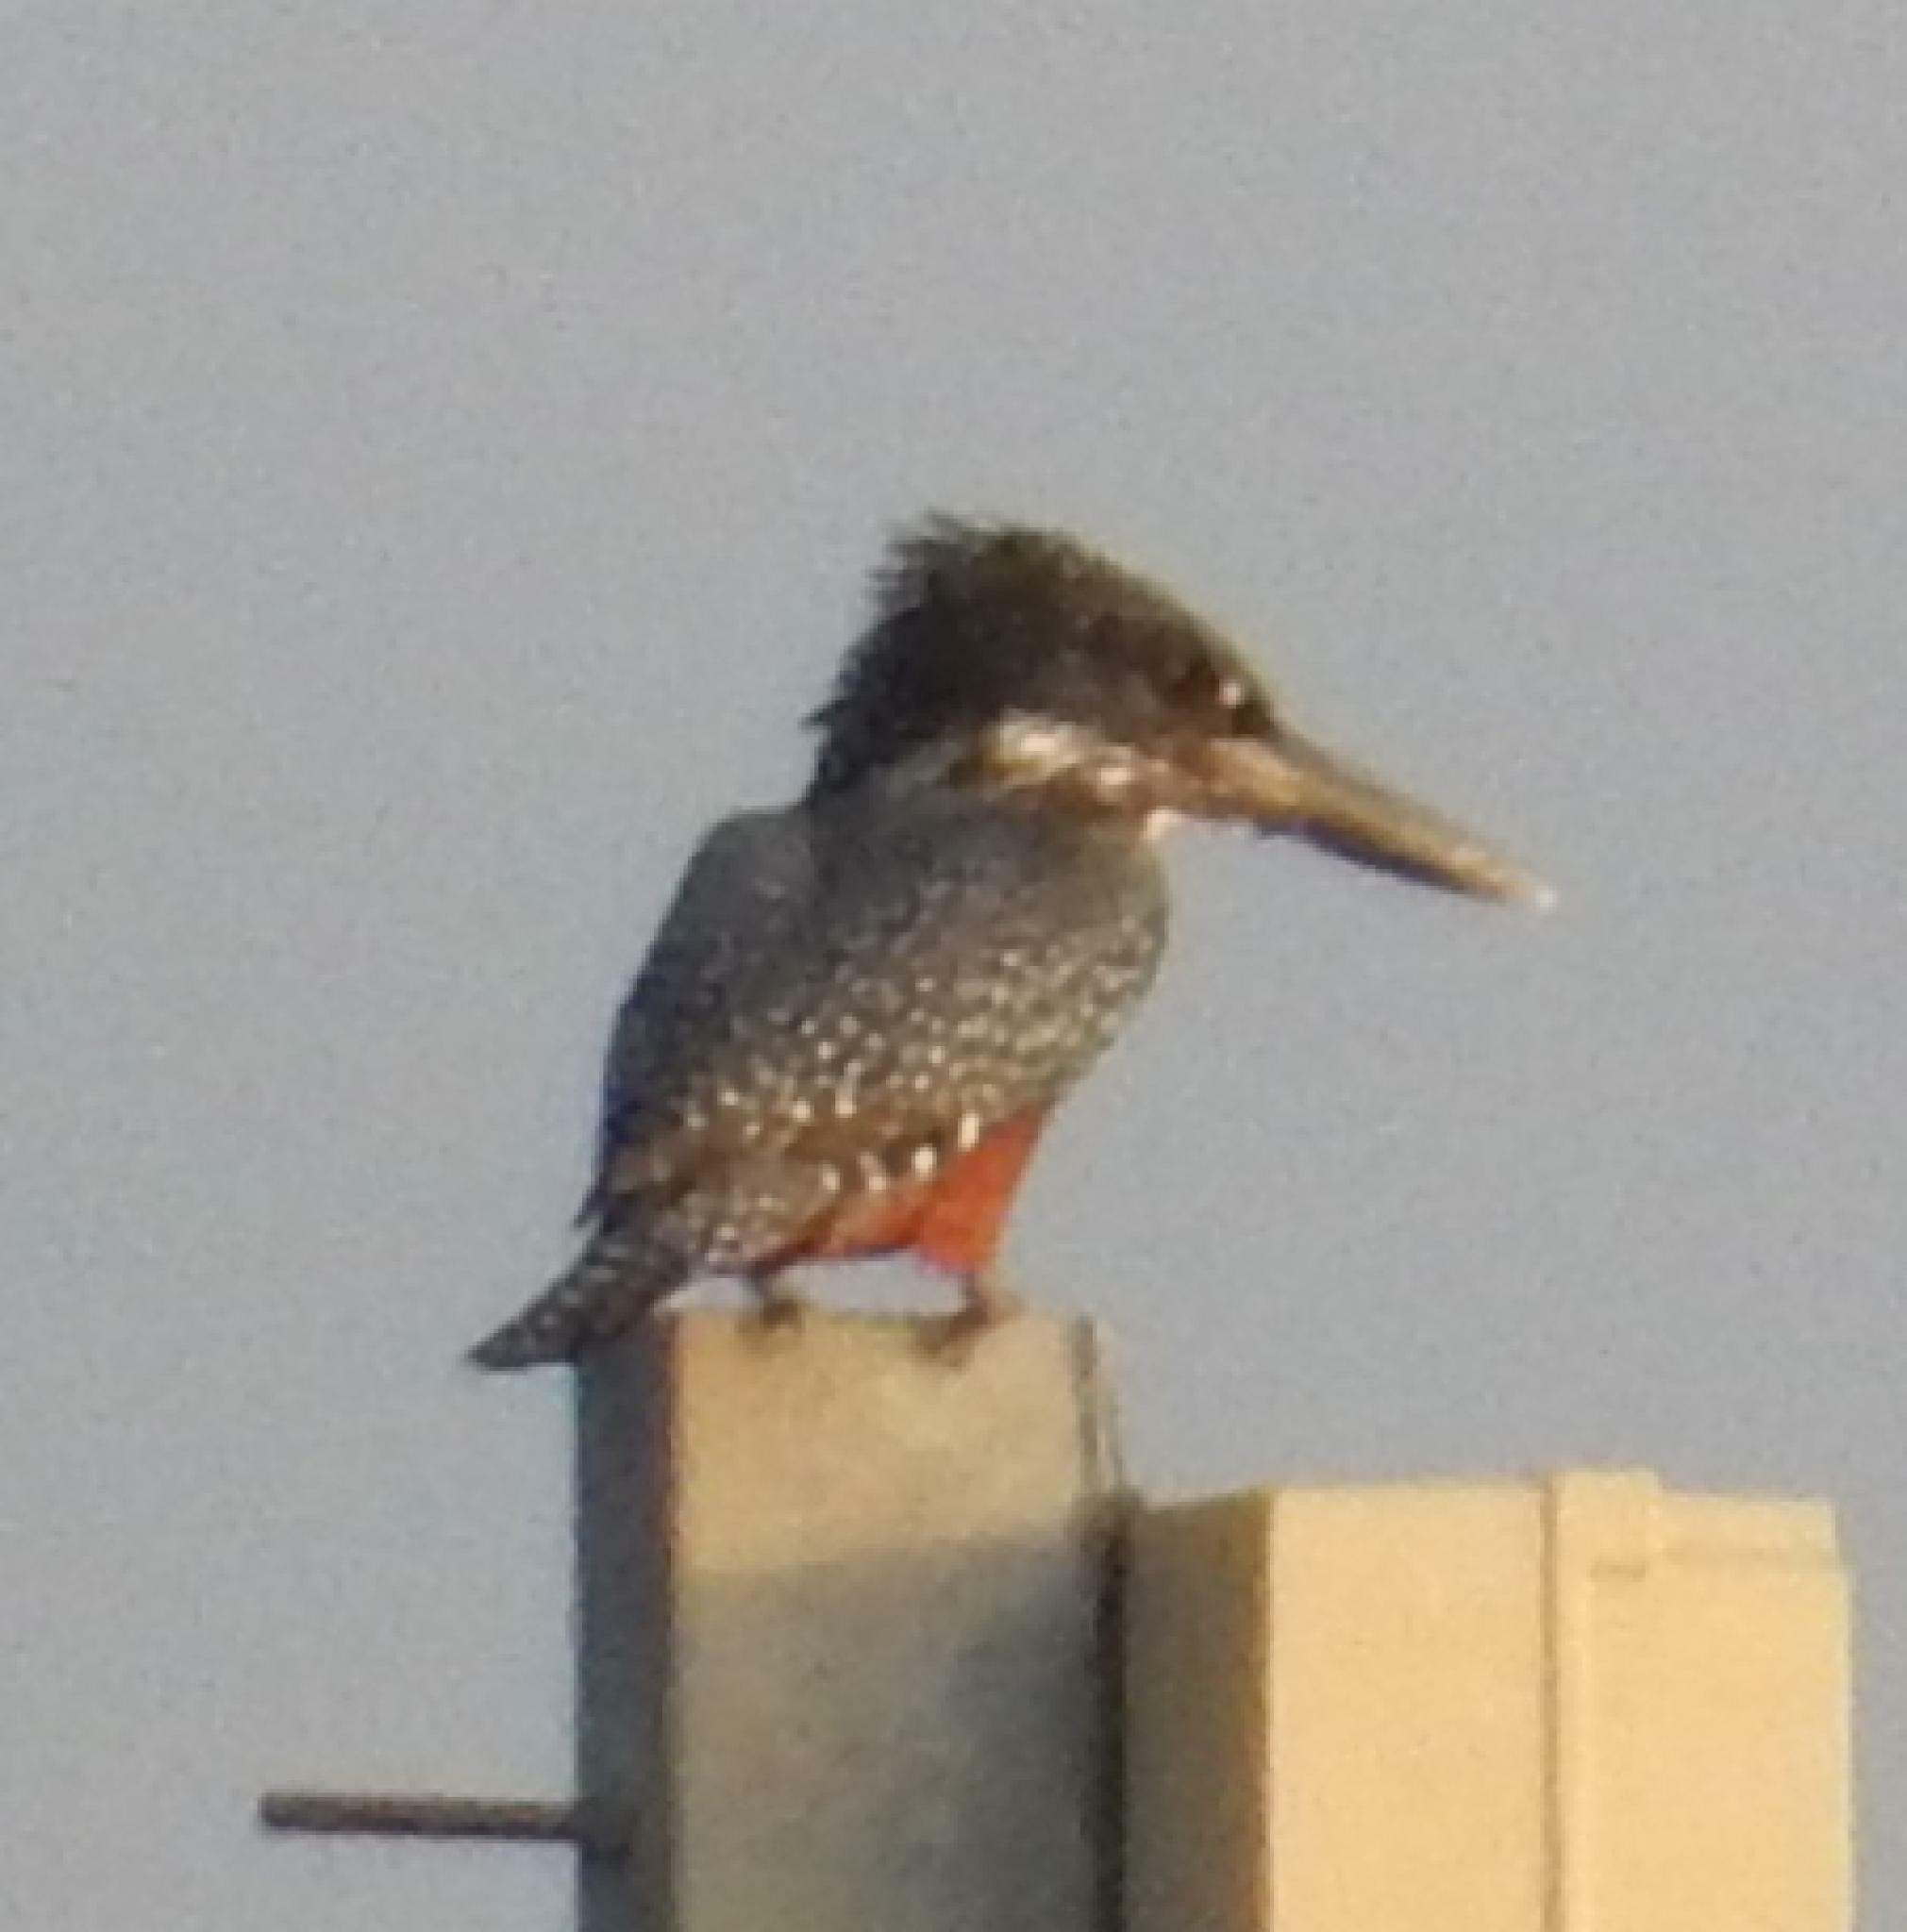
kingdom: Animalia
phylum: Chordata
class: Aves
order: Coraciiformes
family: Alcedinidae
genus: Megaceryle
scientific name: Megaceryle maxima
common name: Giant kingfisher
